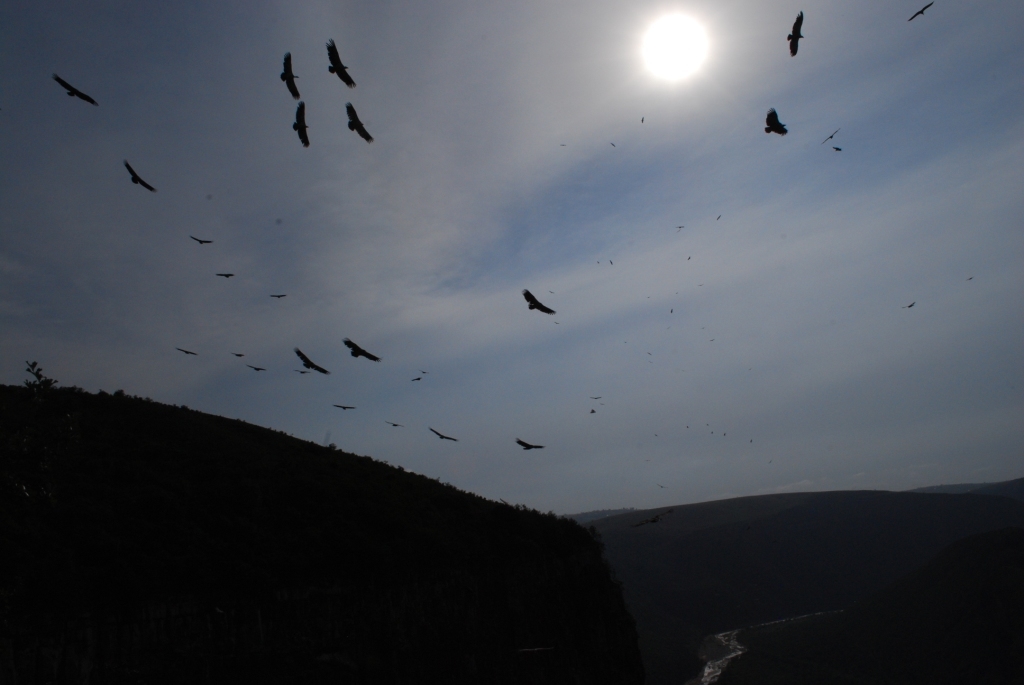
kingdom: Animalia
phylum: Chordata
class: Aves
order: Accipitriformes
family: Accipitridae
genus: Gyps
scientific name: Gyps coprotheres
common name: Cape vulture
